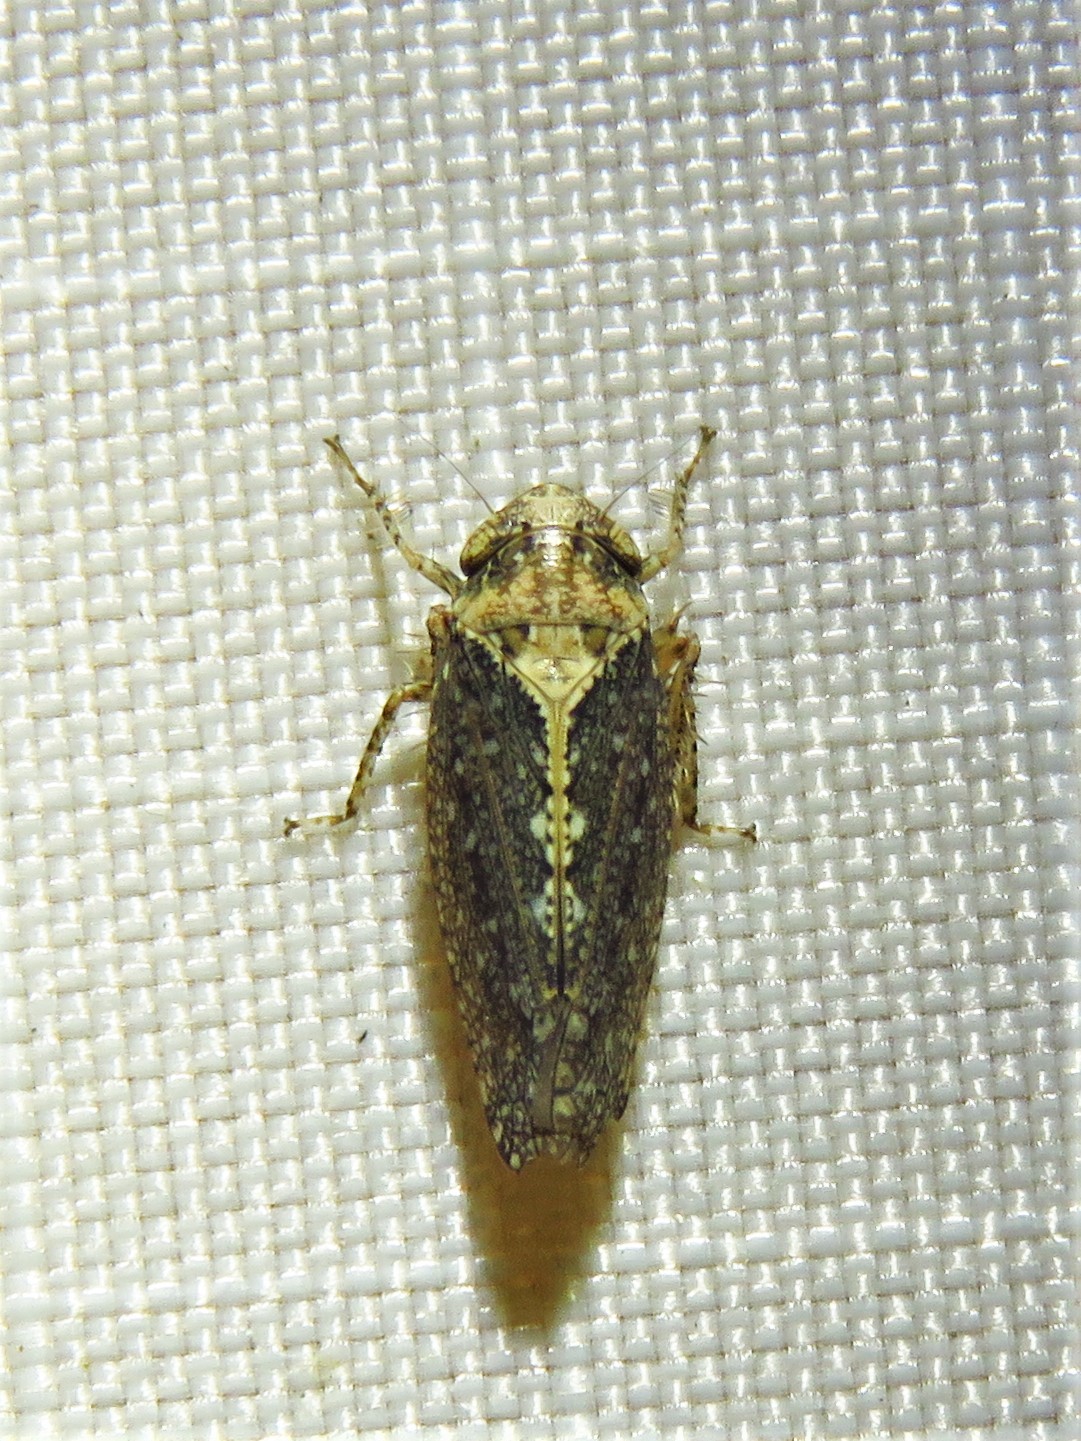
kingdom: Animalia
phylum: Arthropoda
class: Insecta
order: Hemiptera
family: Cicadellidae
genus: Excultanus
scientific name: Excultanus excultus
